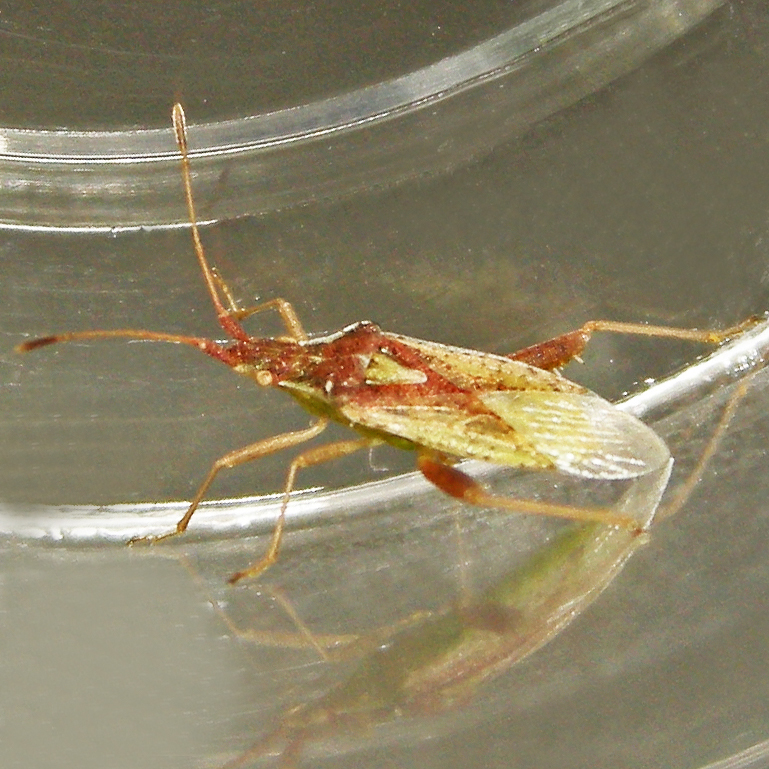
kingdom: Animalia
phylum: Arthropoda
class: Insecta
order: Hemiptera
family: Rhopalidae
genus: Harmostes
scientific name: Harmostes reflexulus
